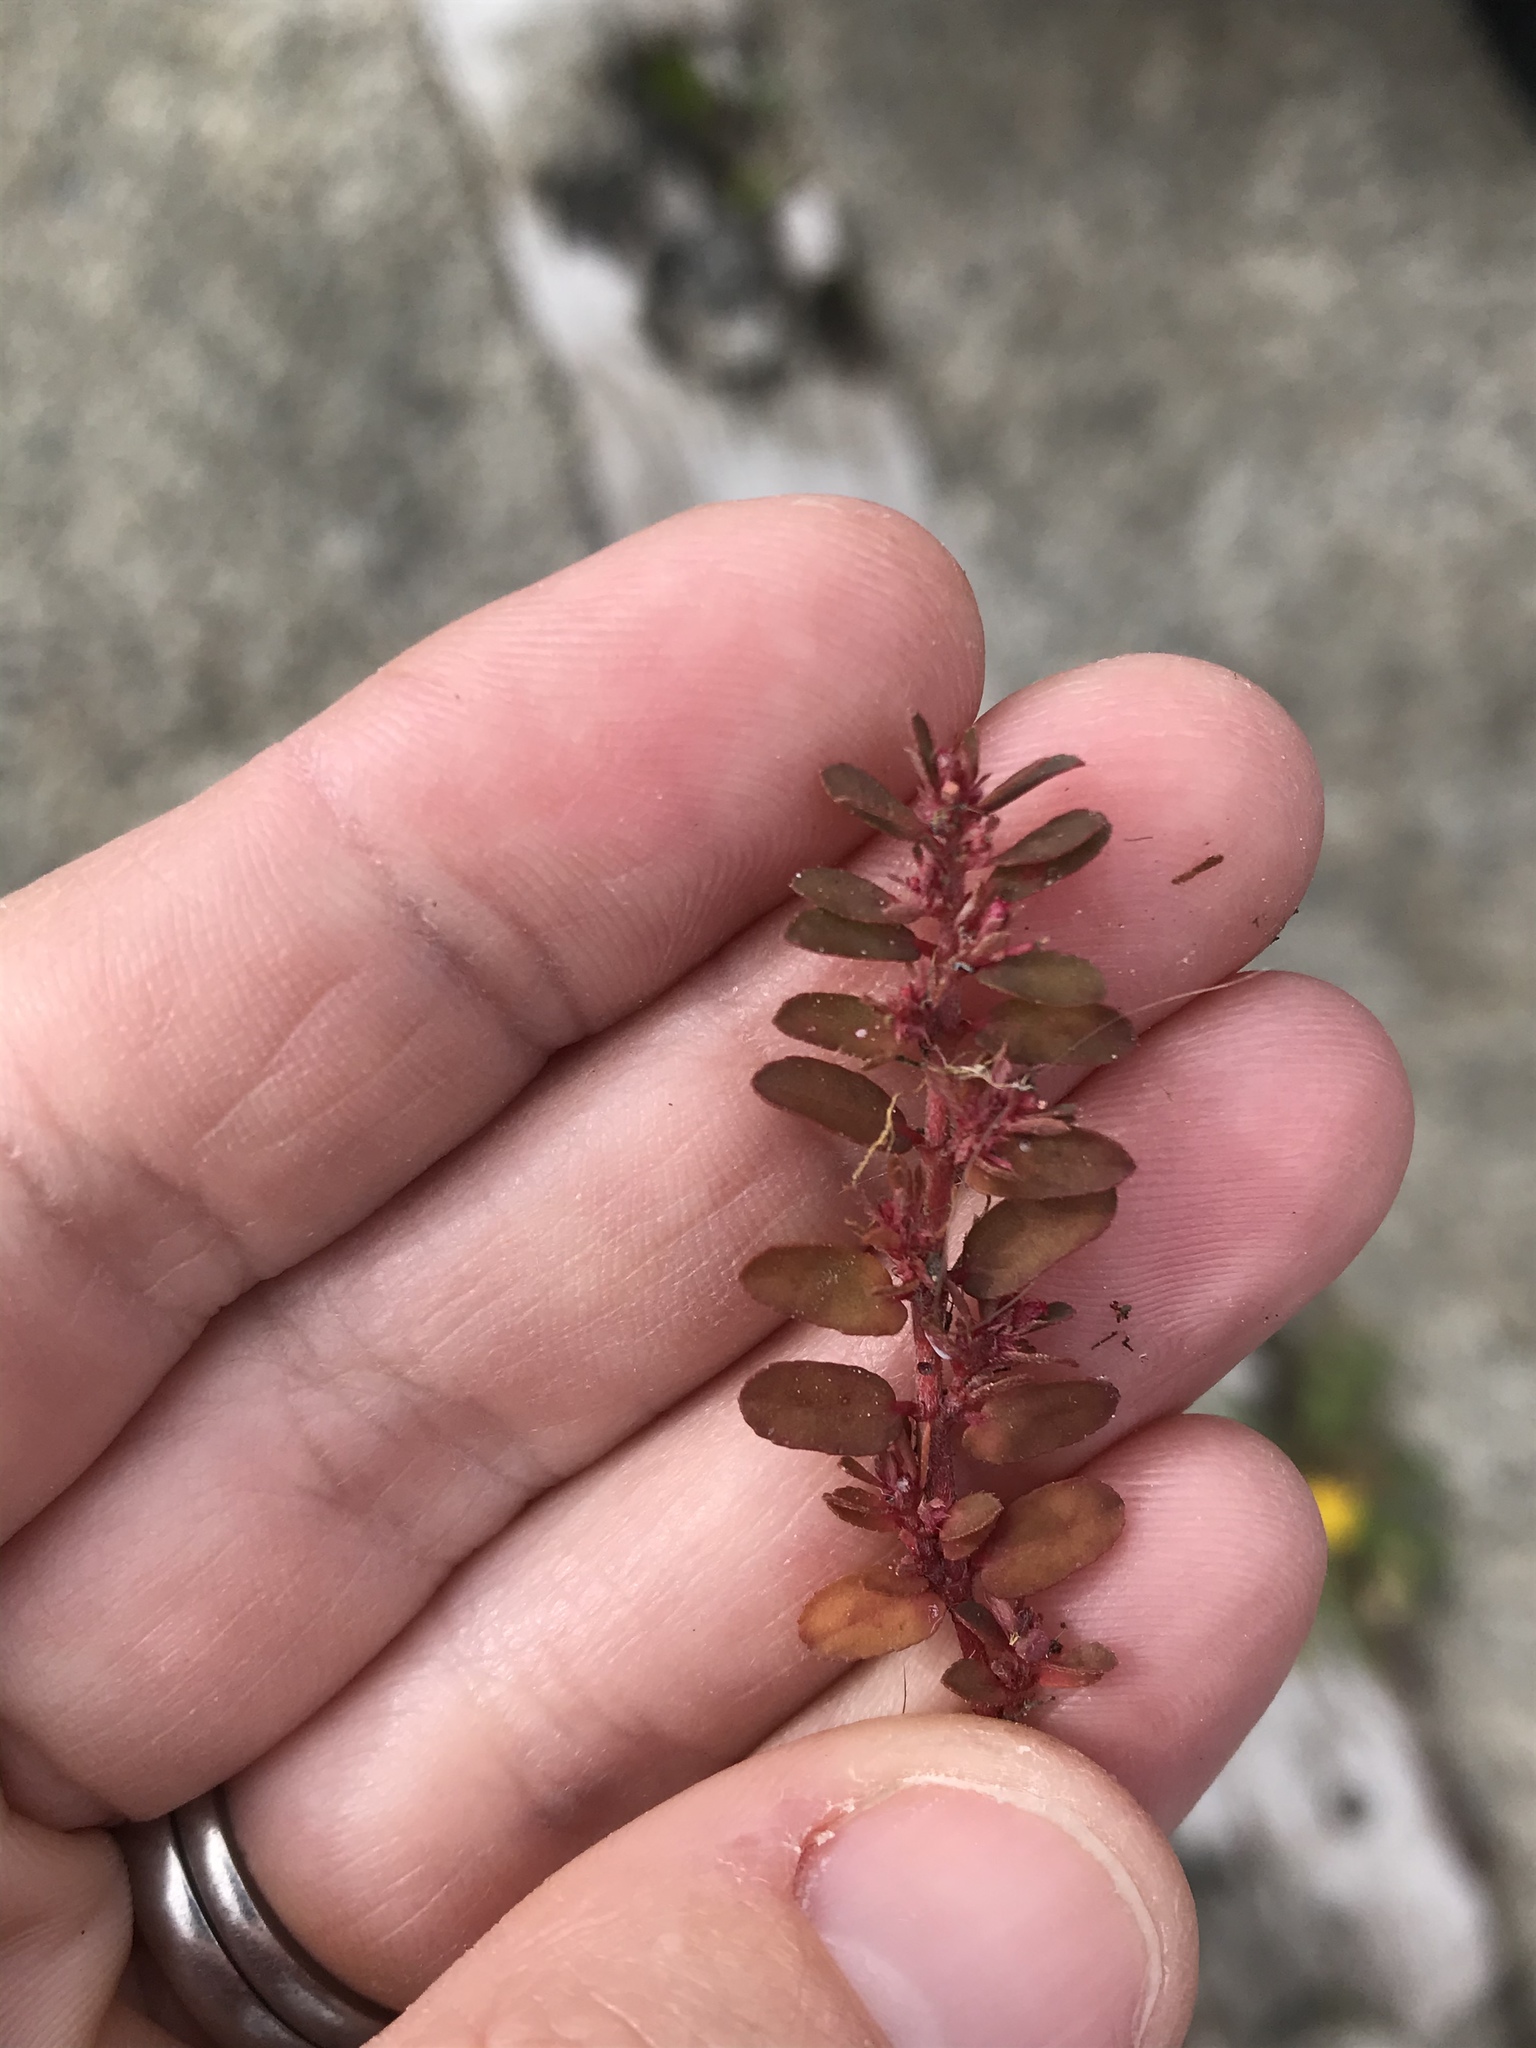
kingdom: Plantae
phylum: Tracheophyta
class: Magnoliopsida
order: Malpighiales
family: Euphorbiaceae
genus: Euphorbia
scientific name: Euphorbia maculata
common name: Spotted spurge
